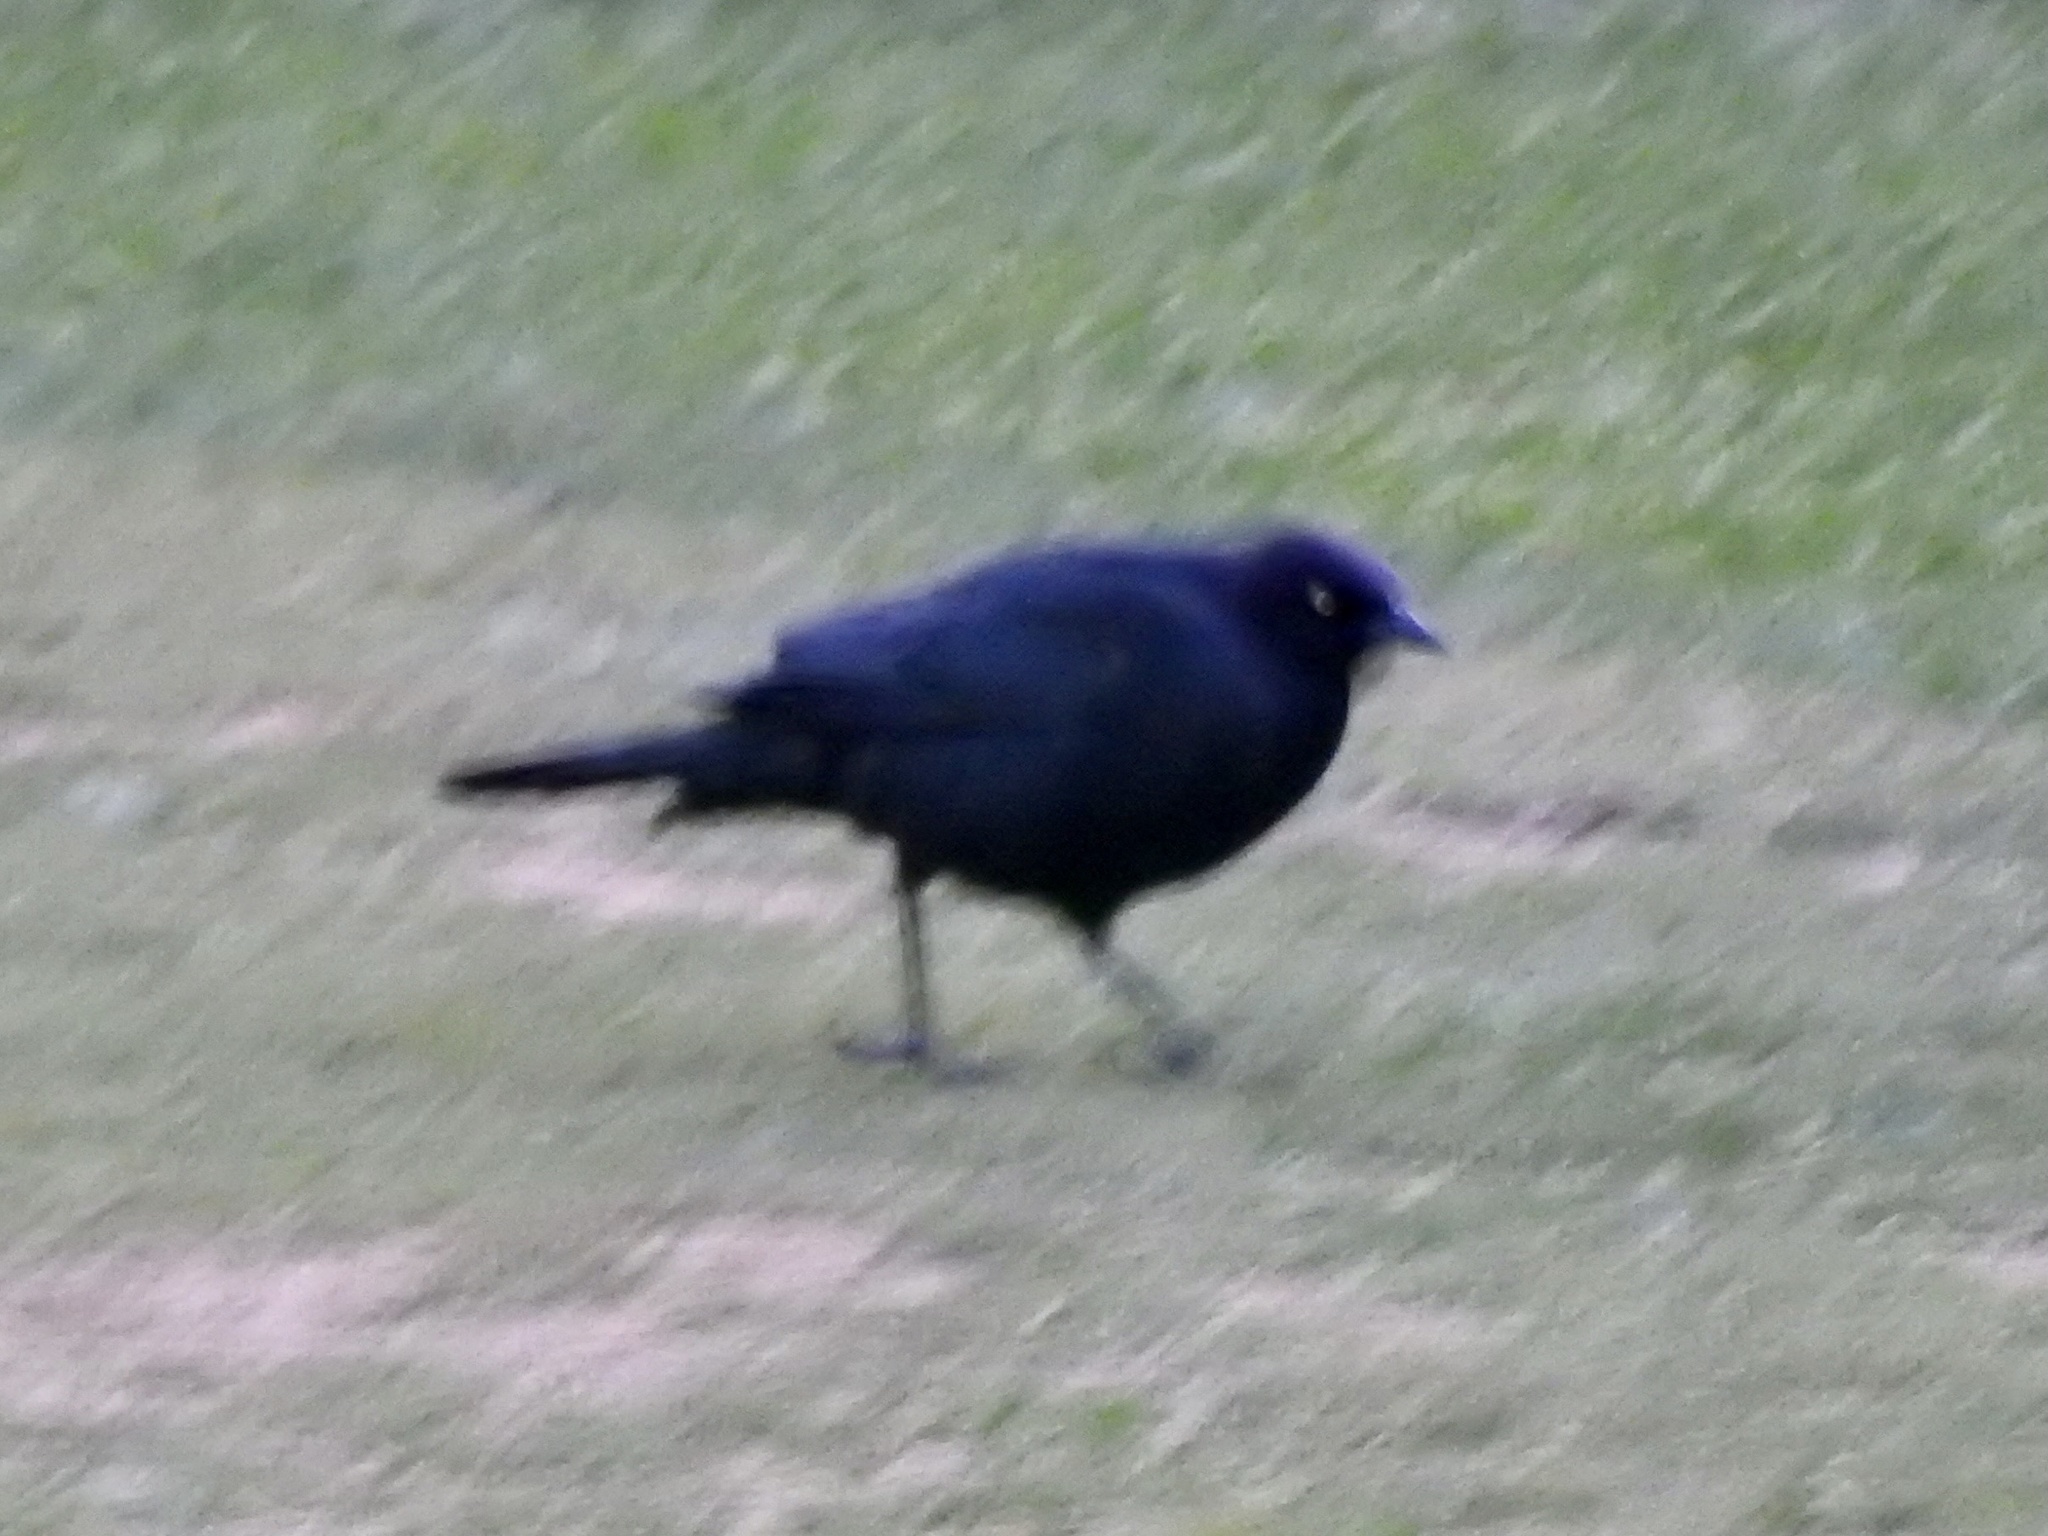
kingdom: Animalia
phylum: Chordata
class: Aves
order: Passeriformes
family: Icteridae
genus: Euphagus
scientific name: Euphagus cyanocephalus
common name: Brewer's blackbird
